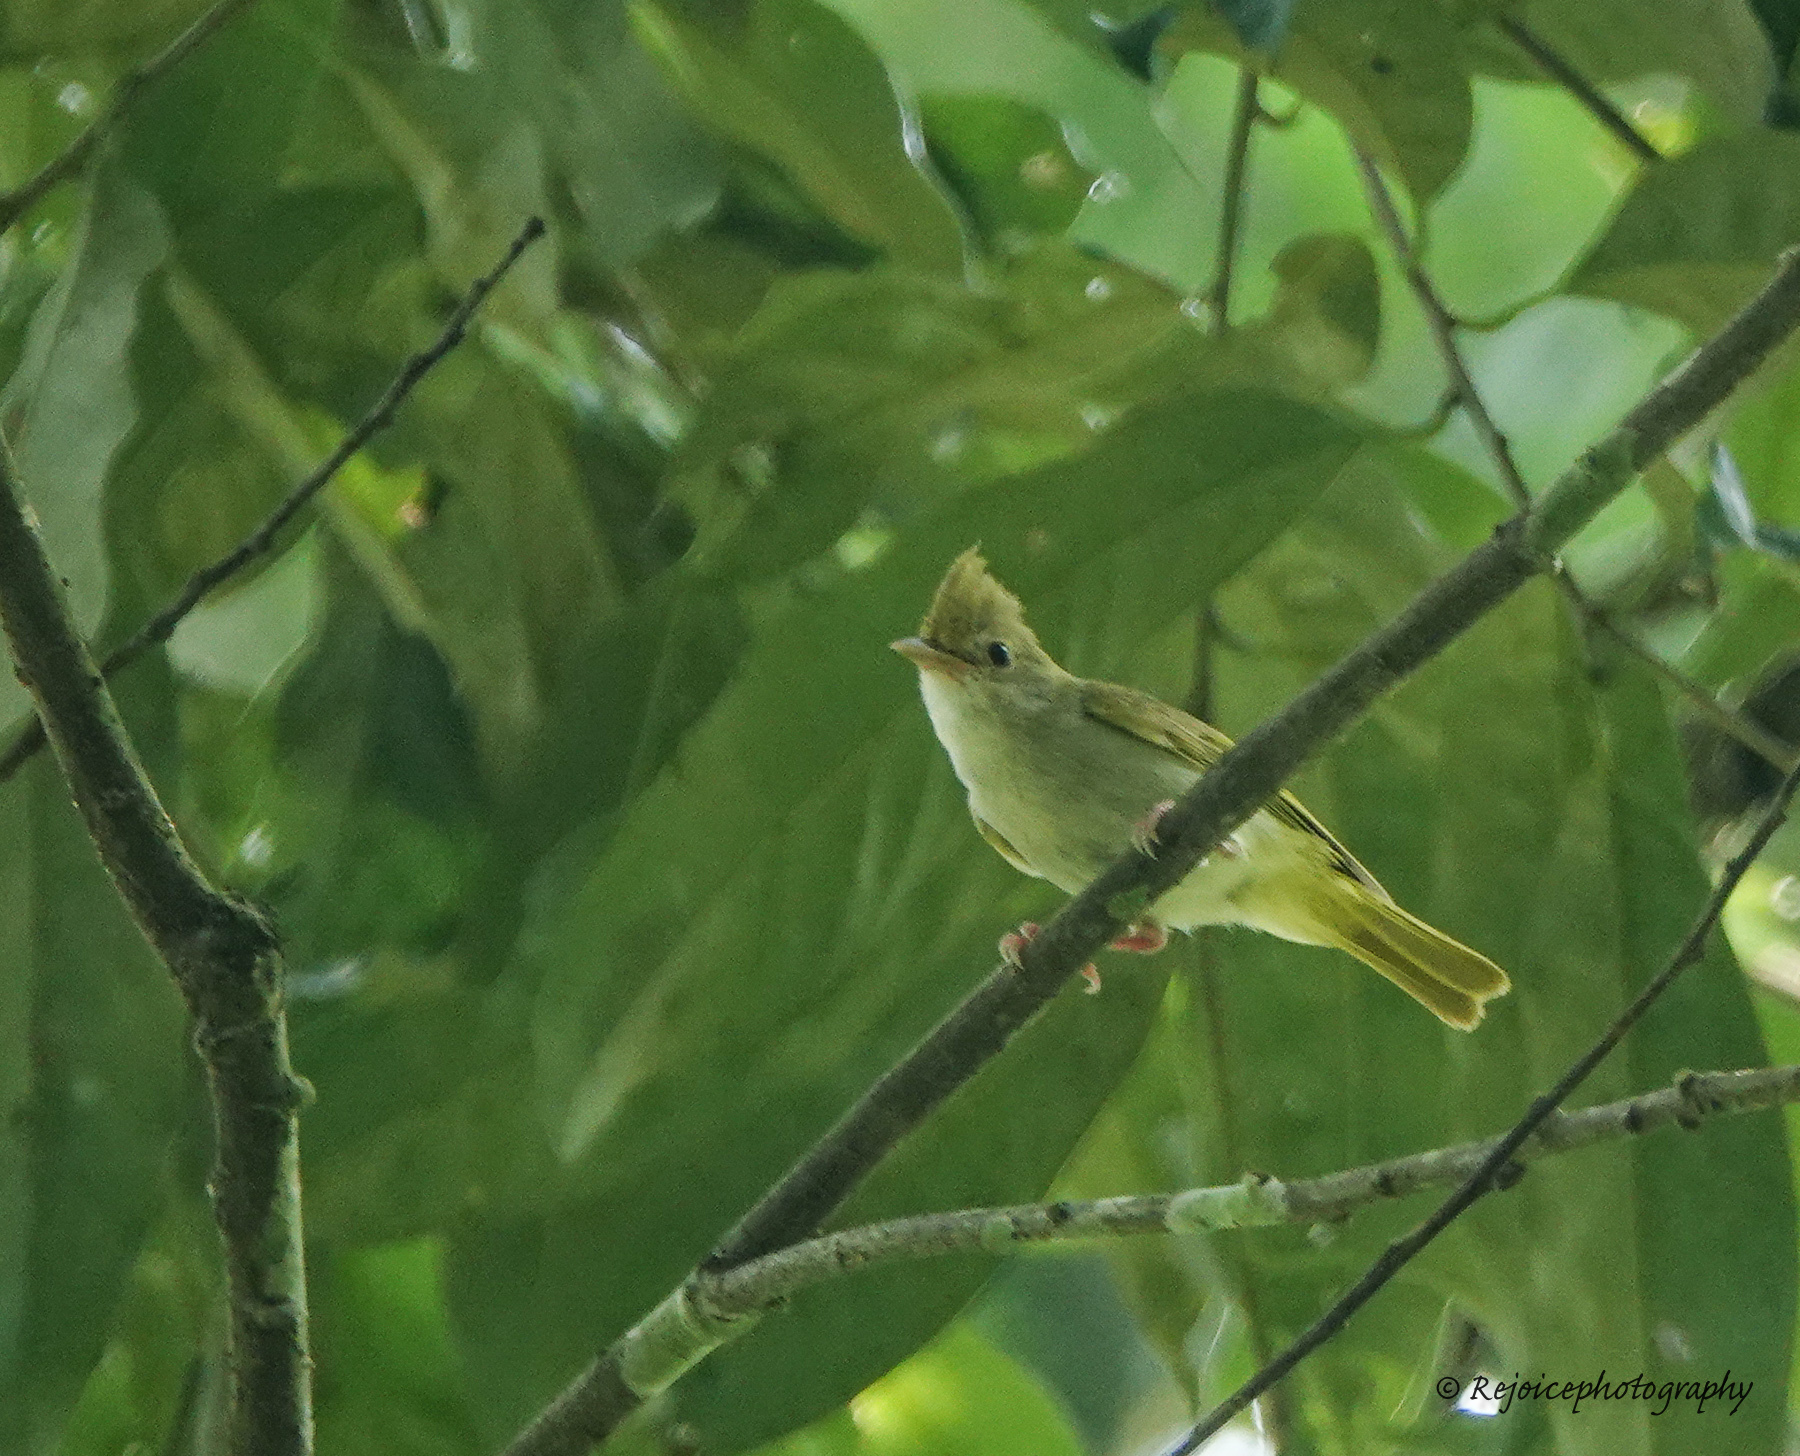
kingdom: Animalia
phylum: Chordata
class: Aves
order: Passeriformes
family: Vireonidae
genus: Erpornis
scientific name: Erpornis zantholeuca
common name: White-bellied erpornis
